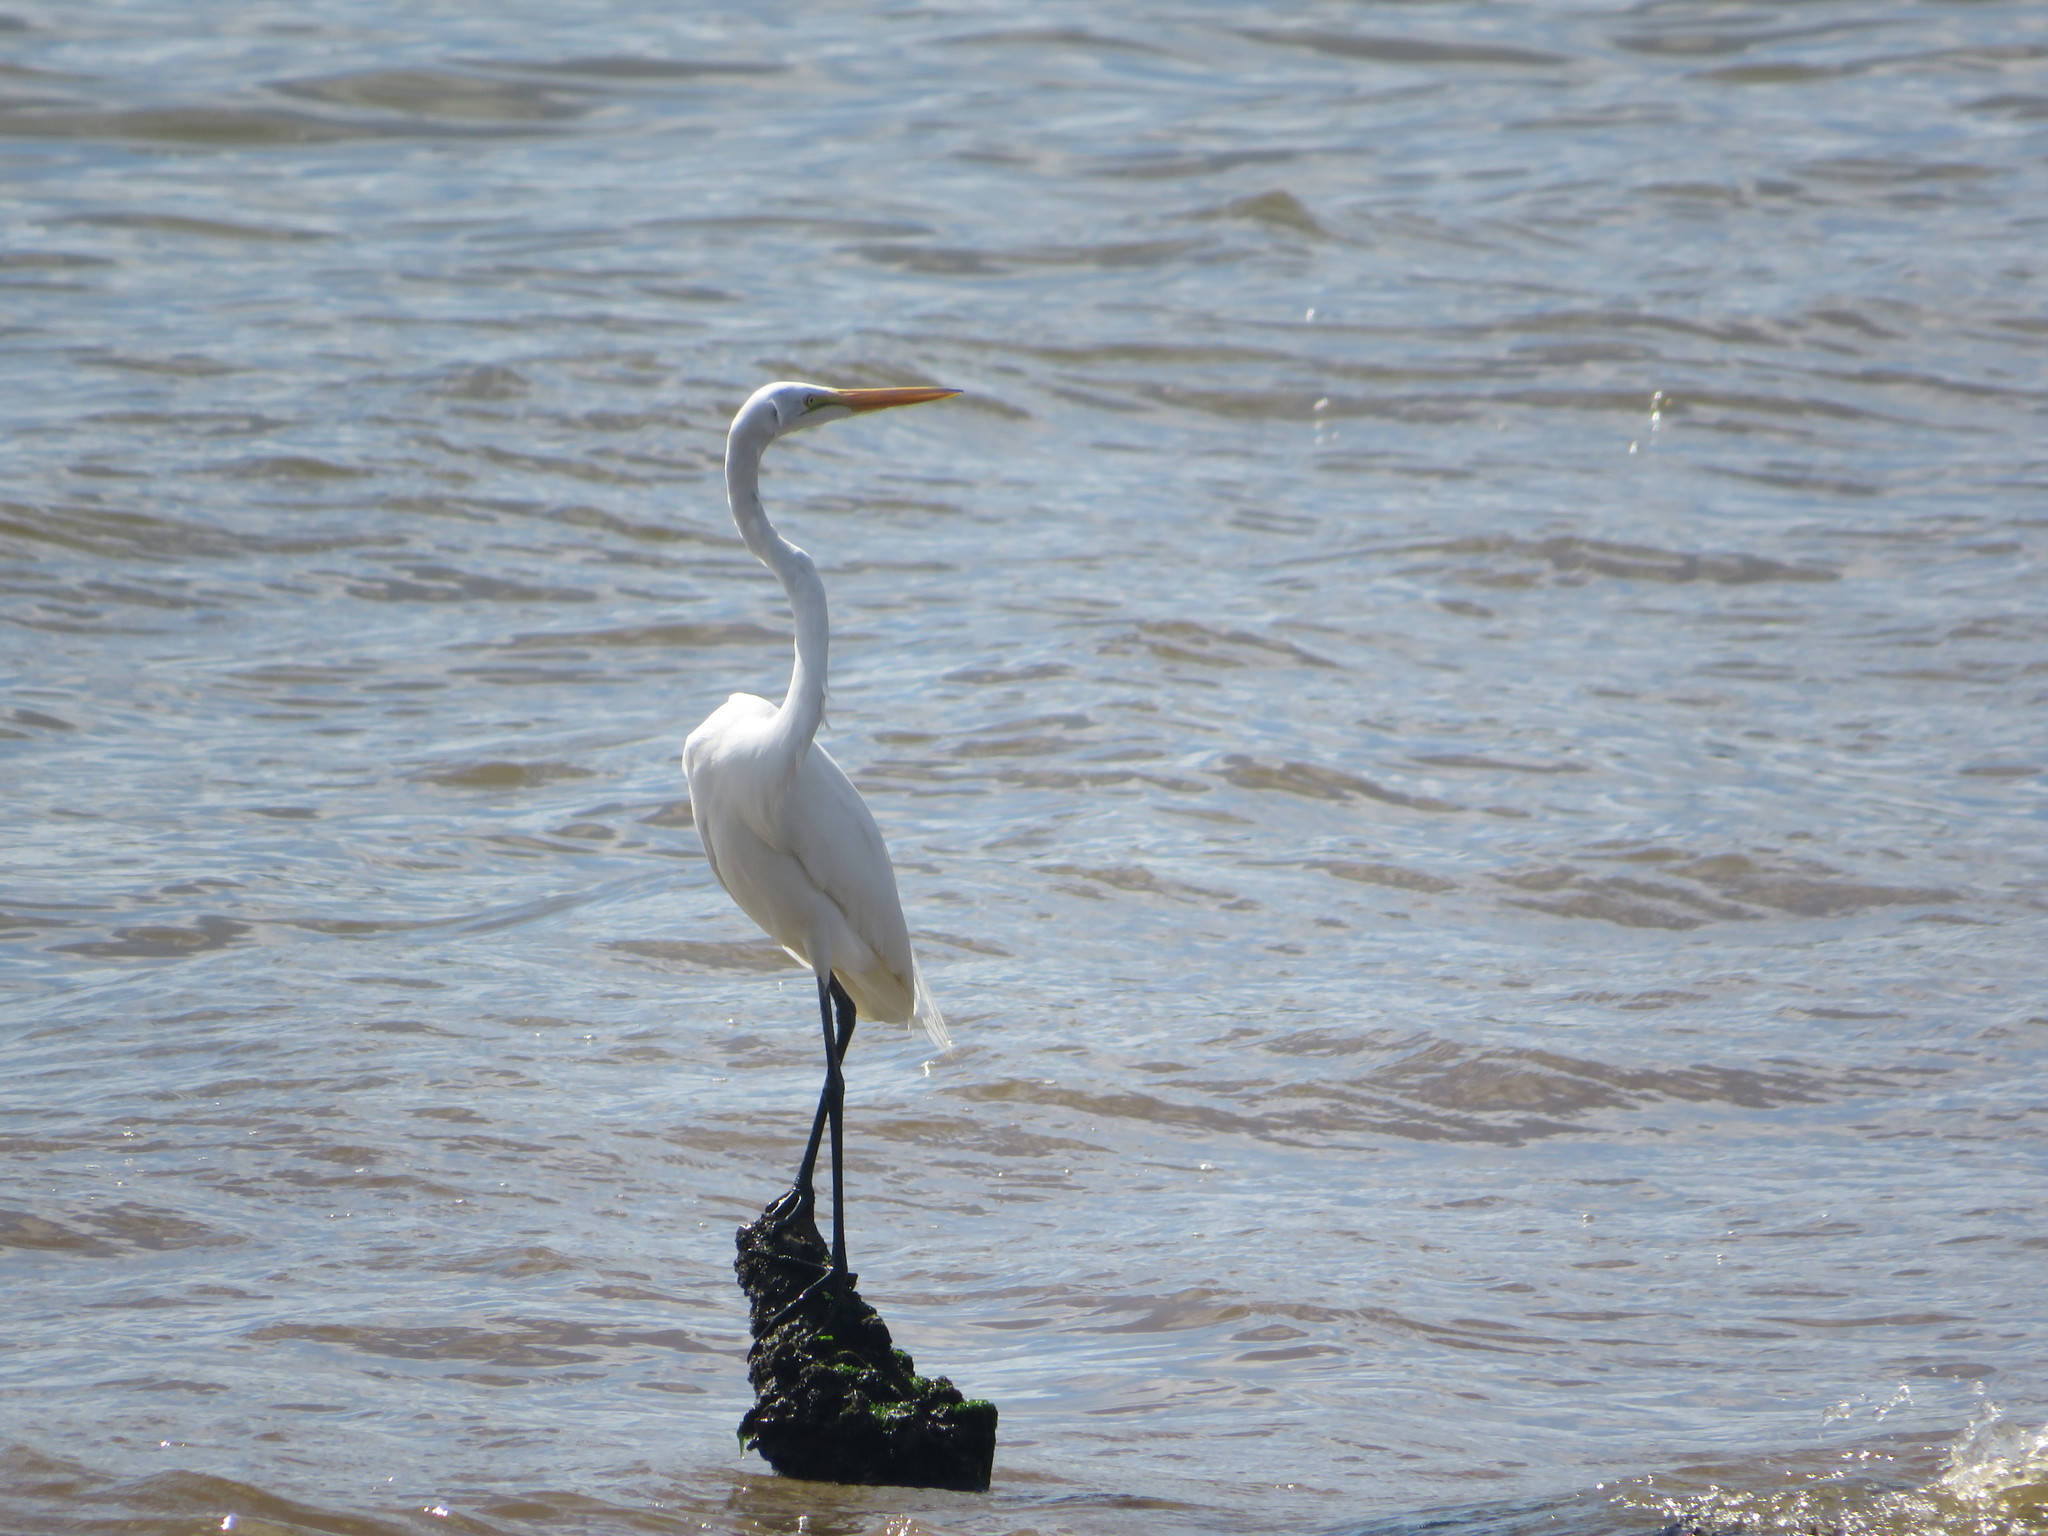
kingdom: Animalia
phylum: Chordata
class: Aves
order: Pelecaniformes
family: Ardeidae
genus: Ardea
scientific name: Ardea alba
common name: Great egret
